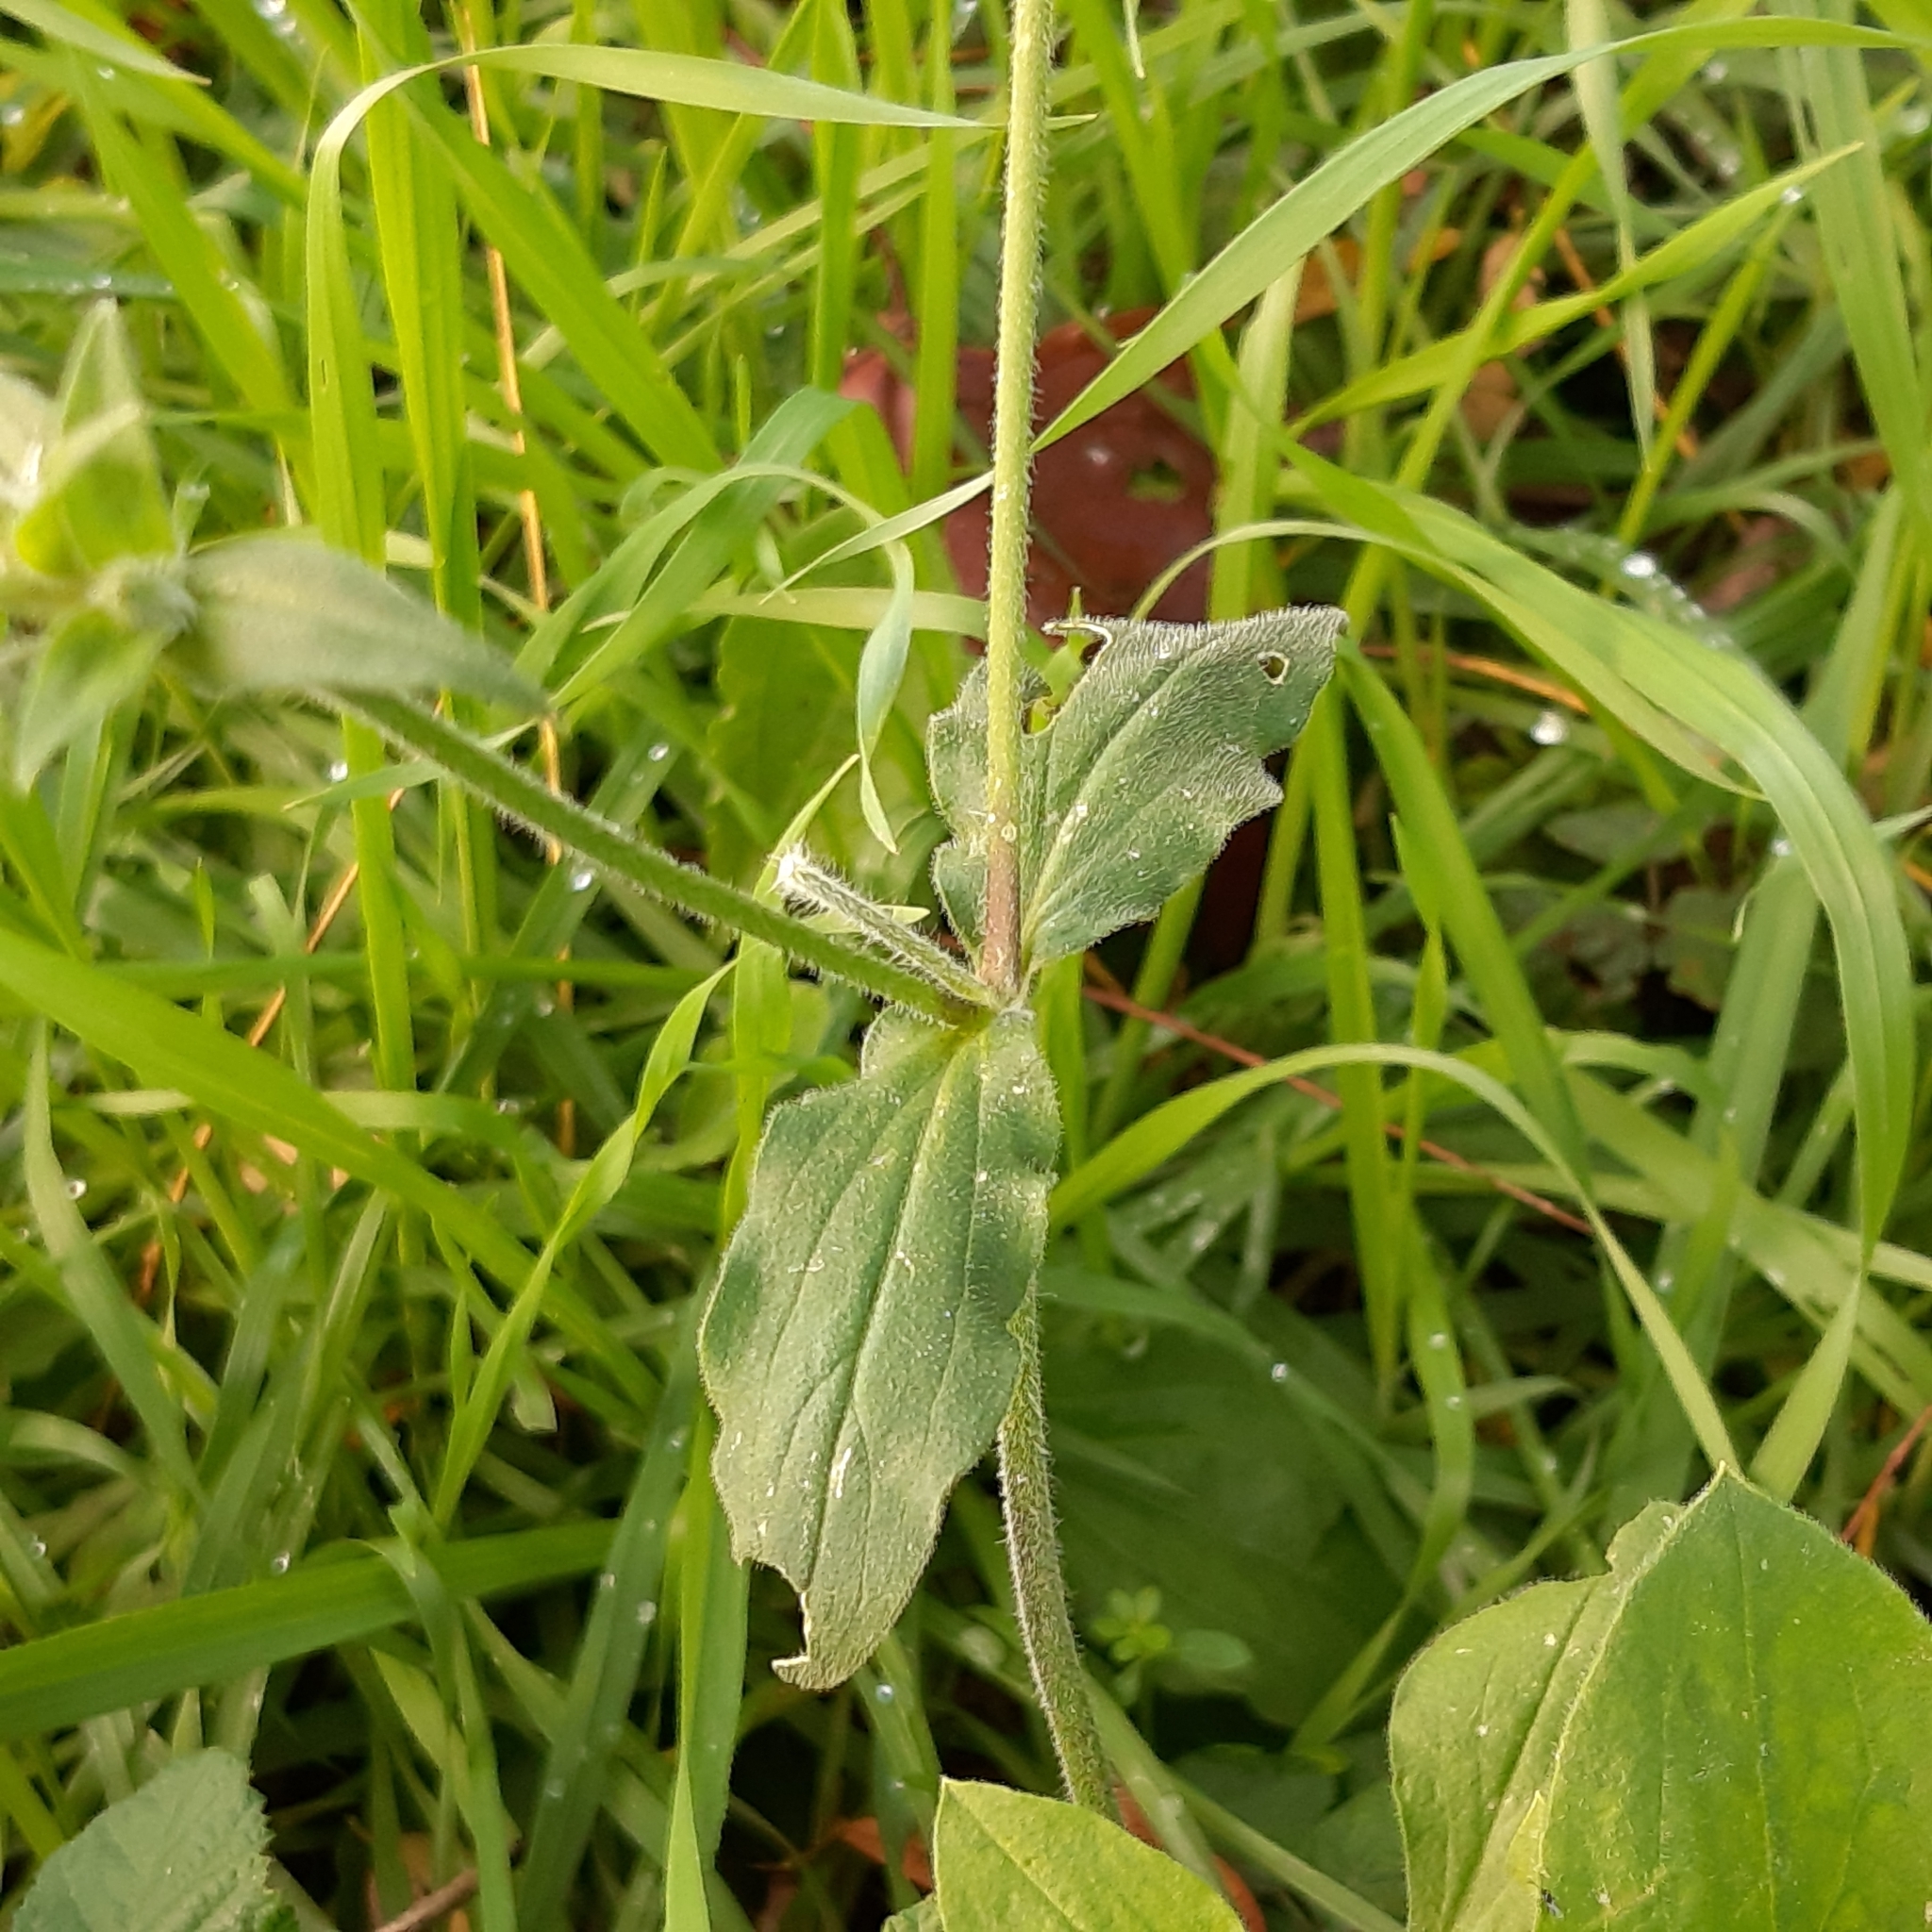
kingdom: Plantae
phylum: Tracheophyta
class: Magnoliopsida
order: Caryophyllales
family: Caryophyllaceae
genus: Silene
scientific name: Silene latifolia
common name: White campion
